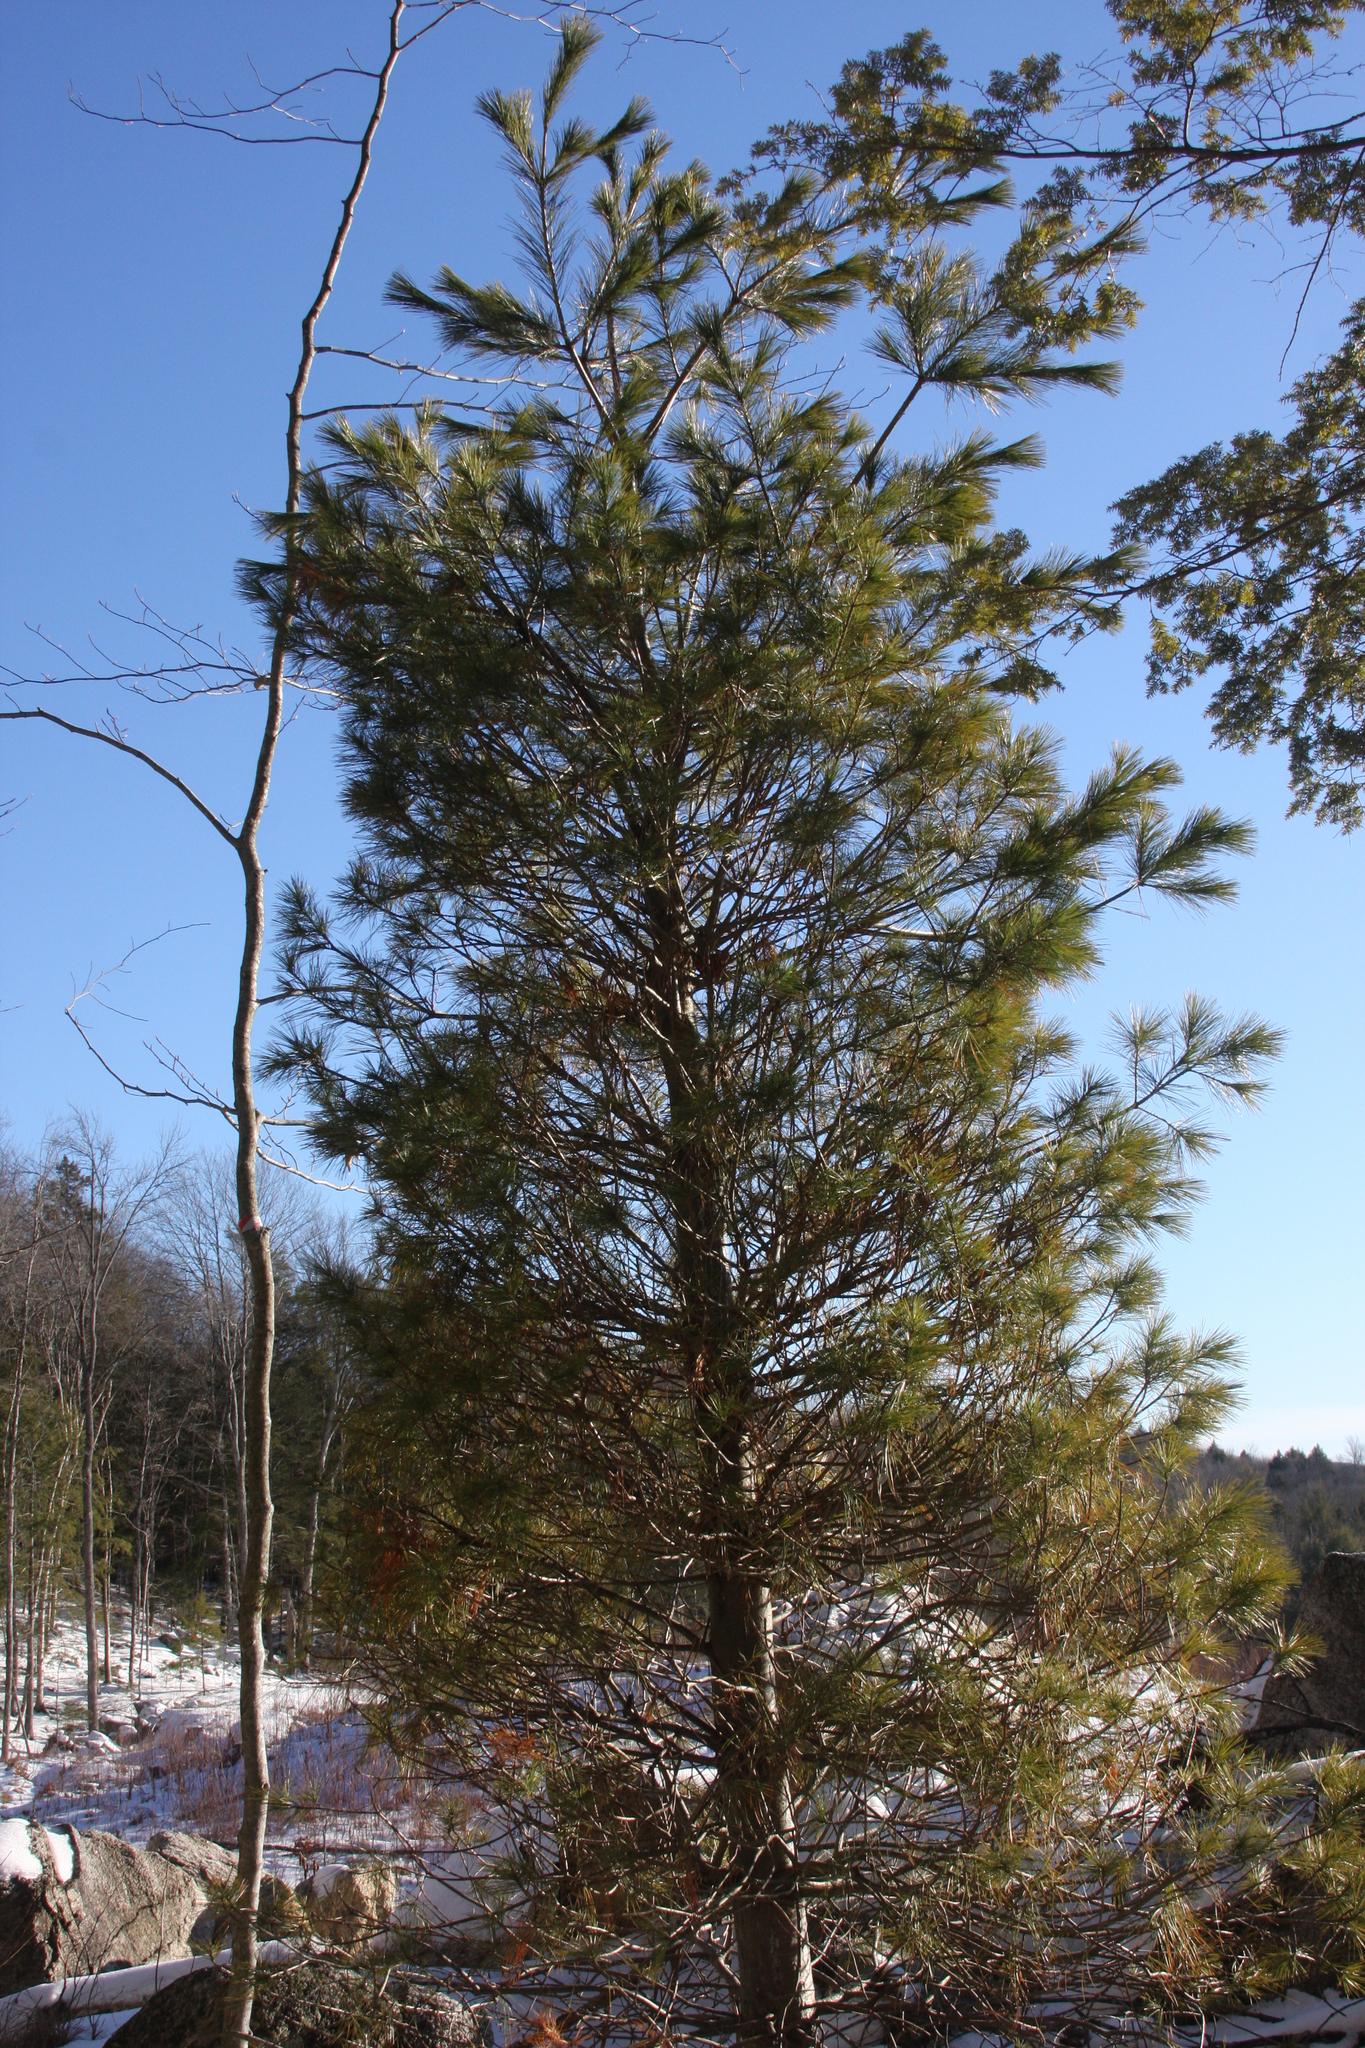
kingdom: Plantae
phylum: Tracheophyta
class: Pinopsida
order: Pinales
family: Pinaceae
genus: Pinus
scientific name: Pinus strobus
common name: Weymouth pine
